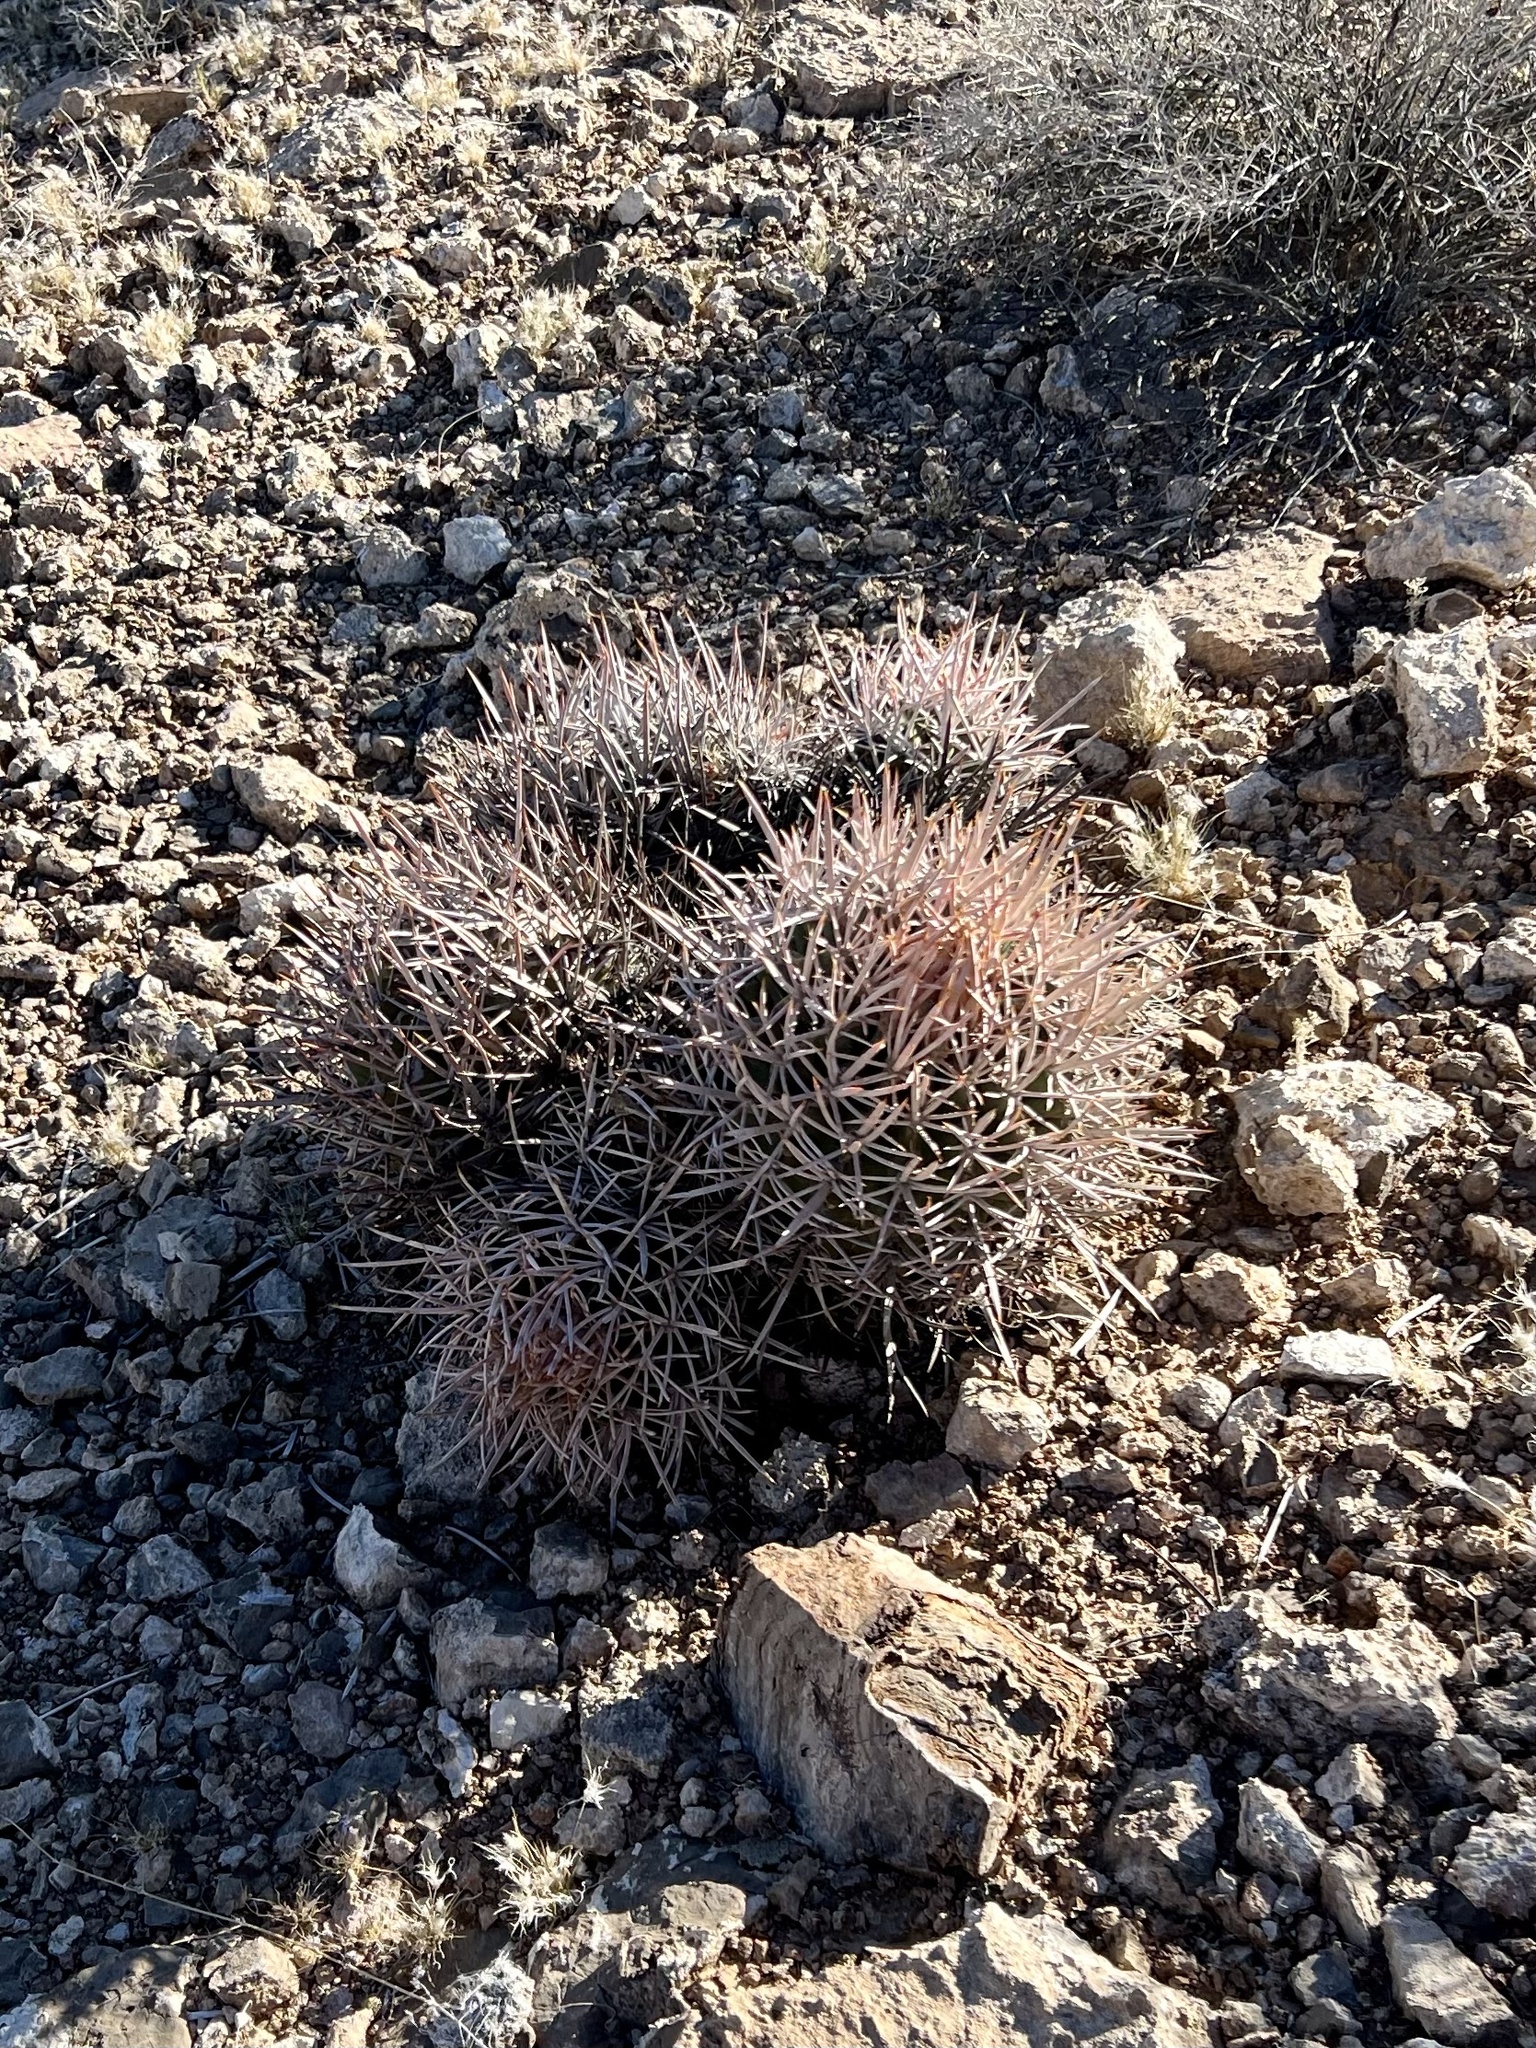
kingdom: Plantae
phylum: Tracheophyta
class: Magnoliopsida
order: Caryophyllales
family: Cactaceae
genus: Echinocactus
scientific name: Echinocactus polycephalus
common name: Cottontop cactus
